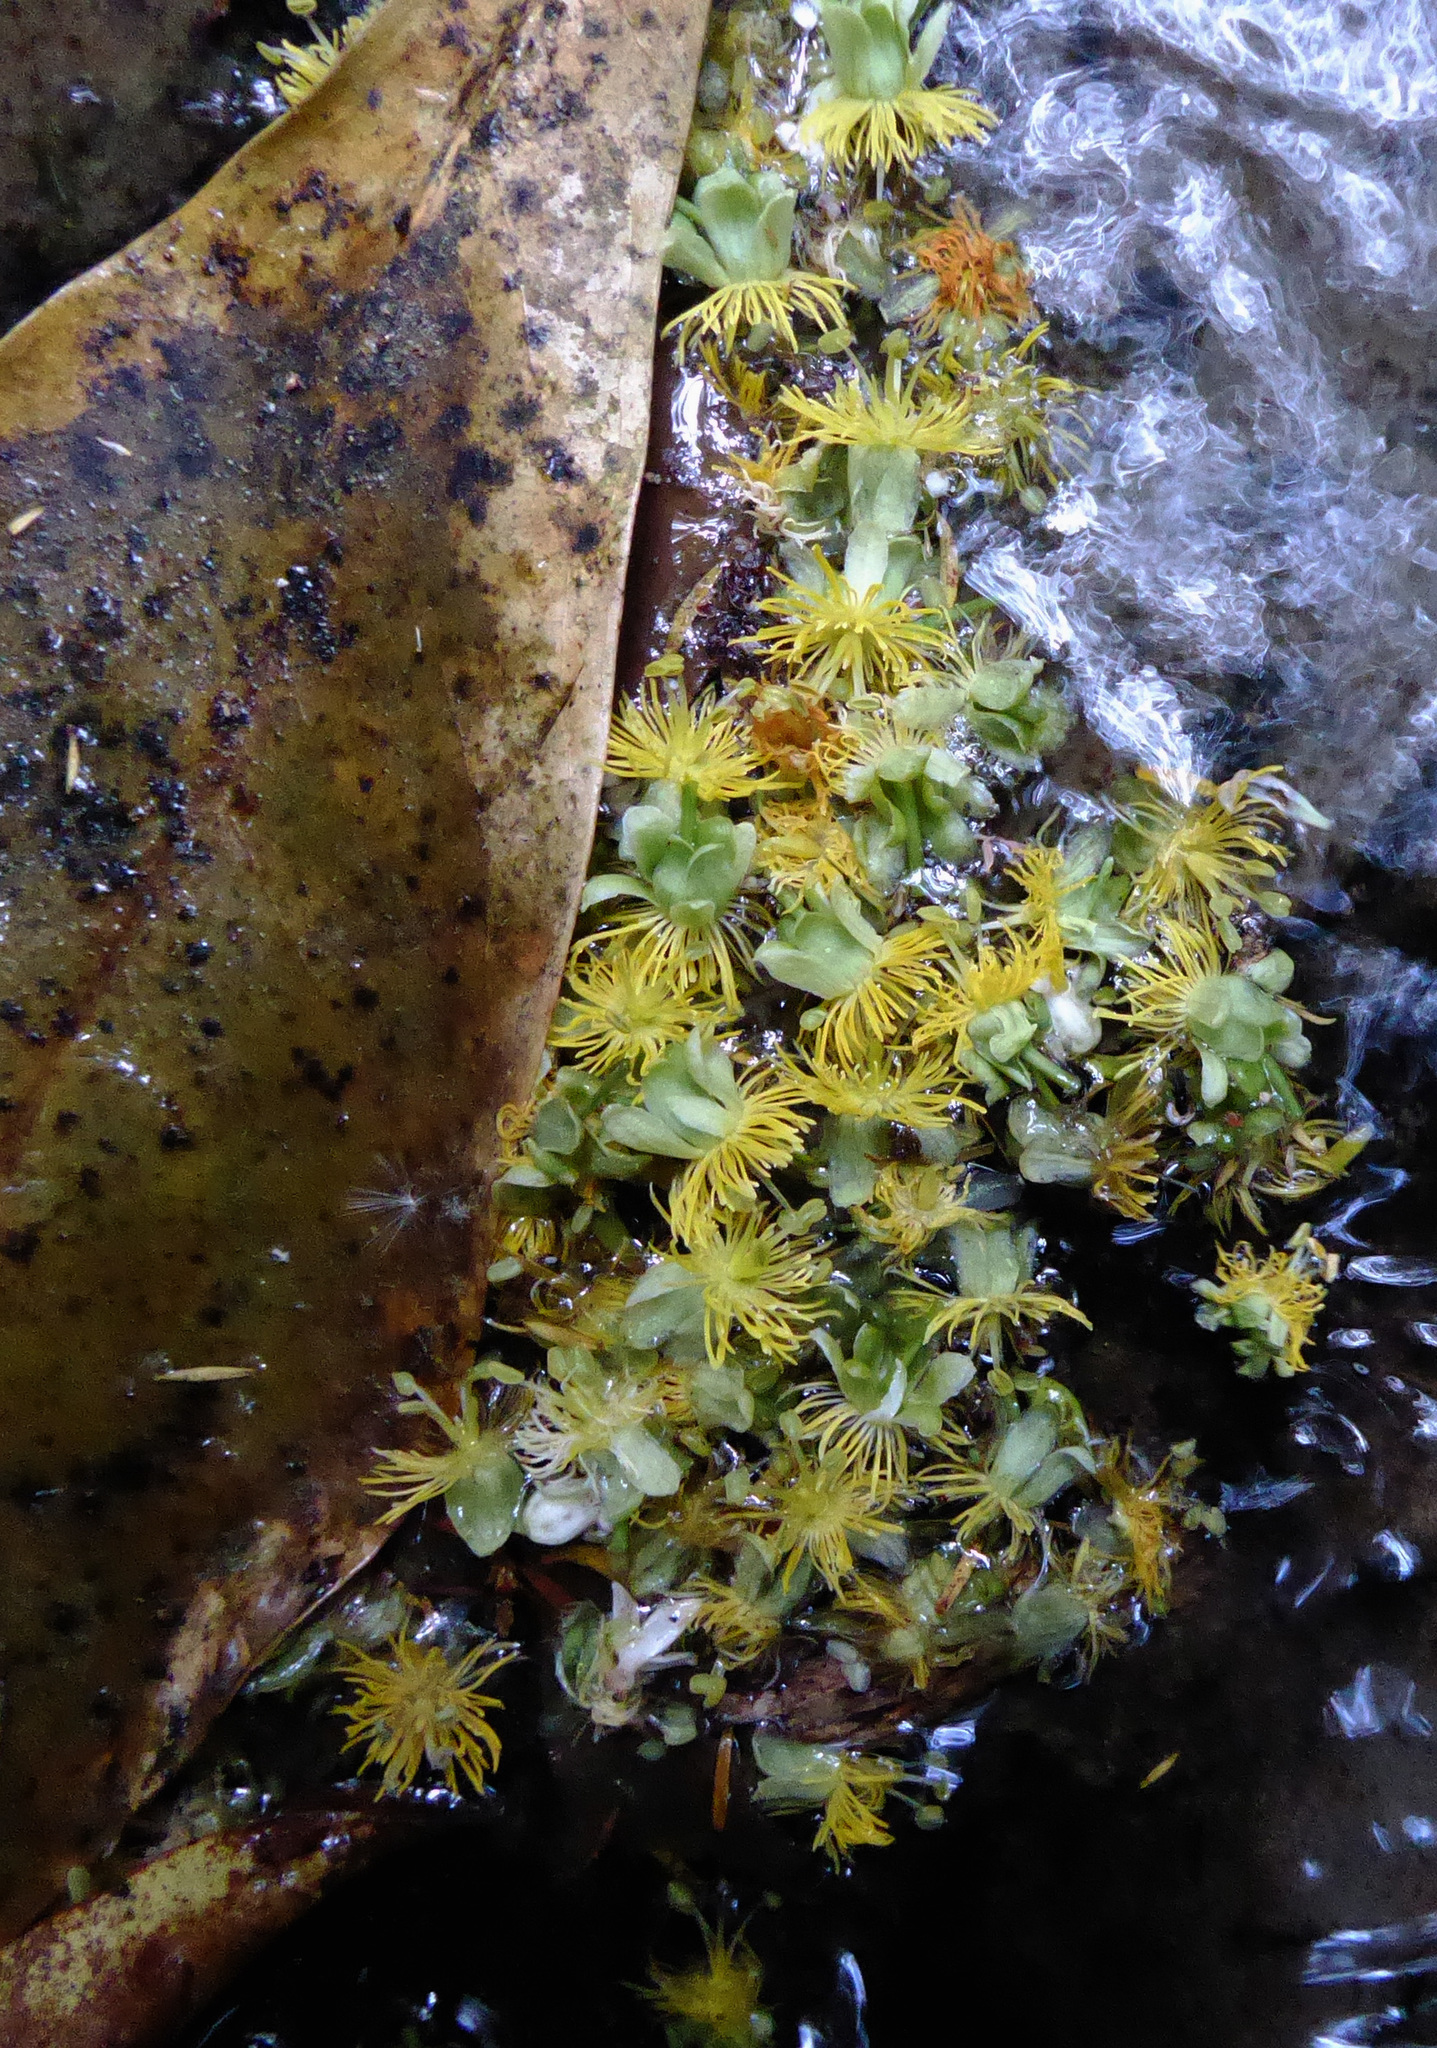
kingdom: Plantae
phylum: Tracheophyta
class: Magnoliopsida
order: Malpighiales
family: Passifloraceae
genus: Passiflora
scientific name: Passiflora tetrandra
